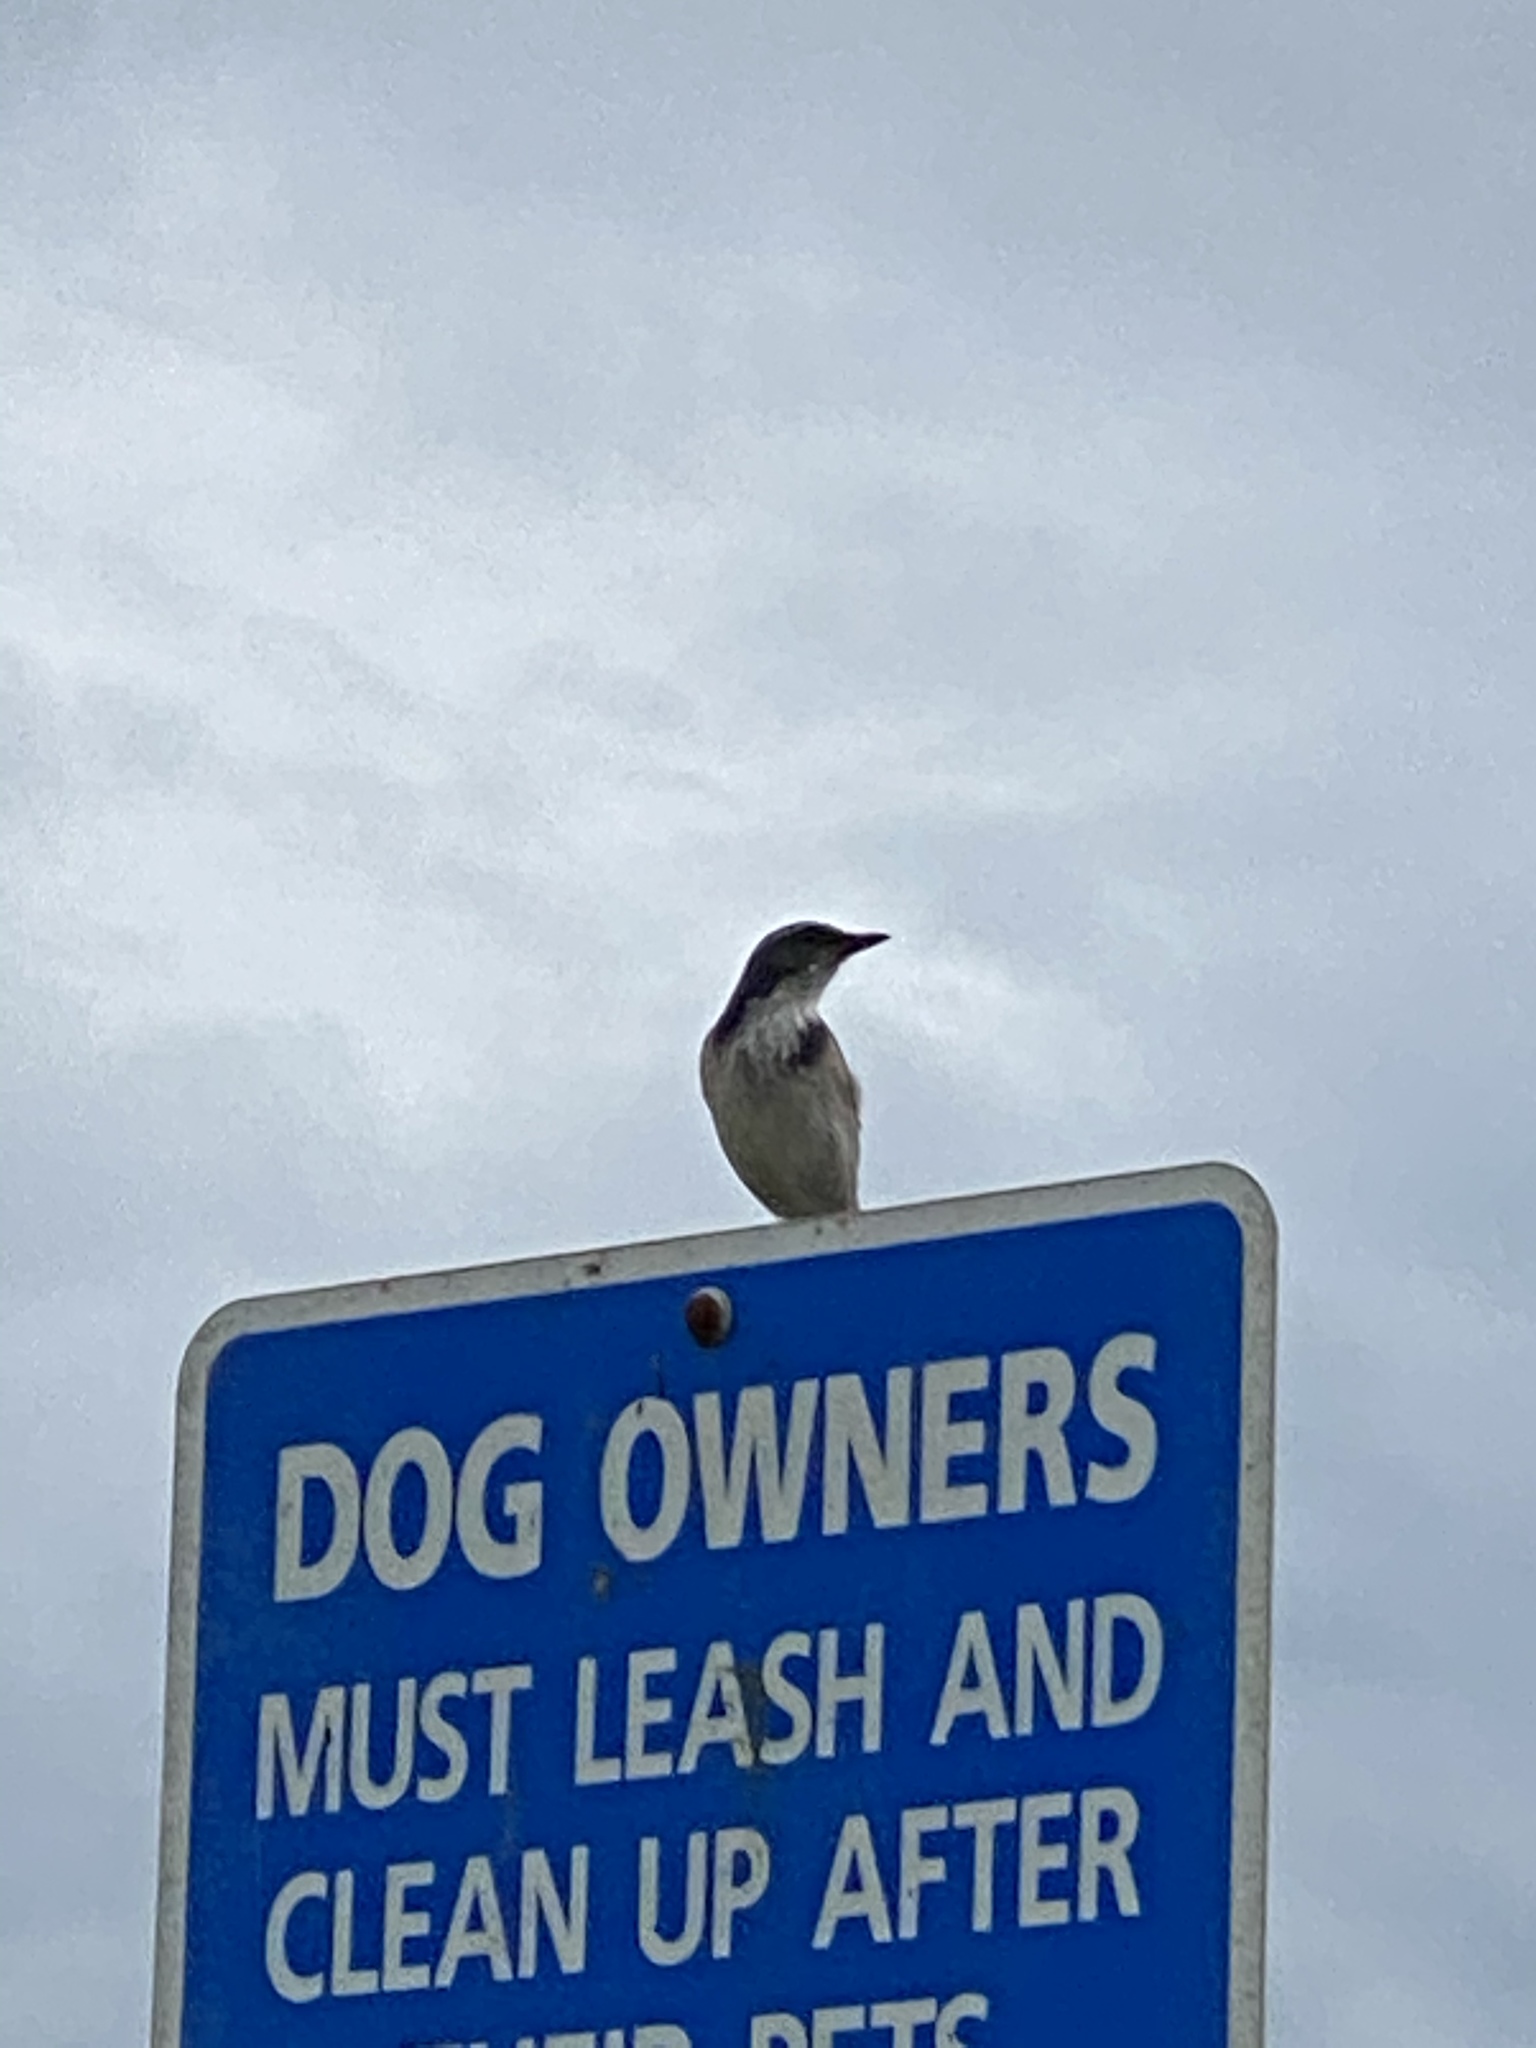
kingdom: Animalia
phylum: Chordata
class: Aves
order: Passeriformes
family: Corvidae
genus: Aphelocoma
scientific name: Aphelocoma californica
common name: California scrub-jay
